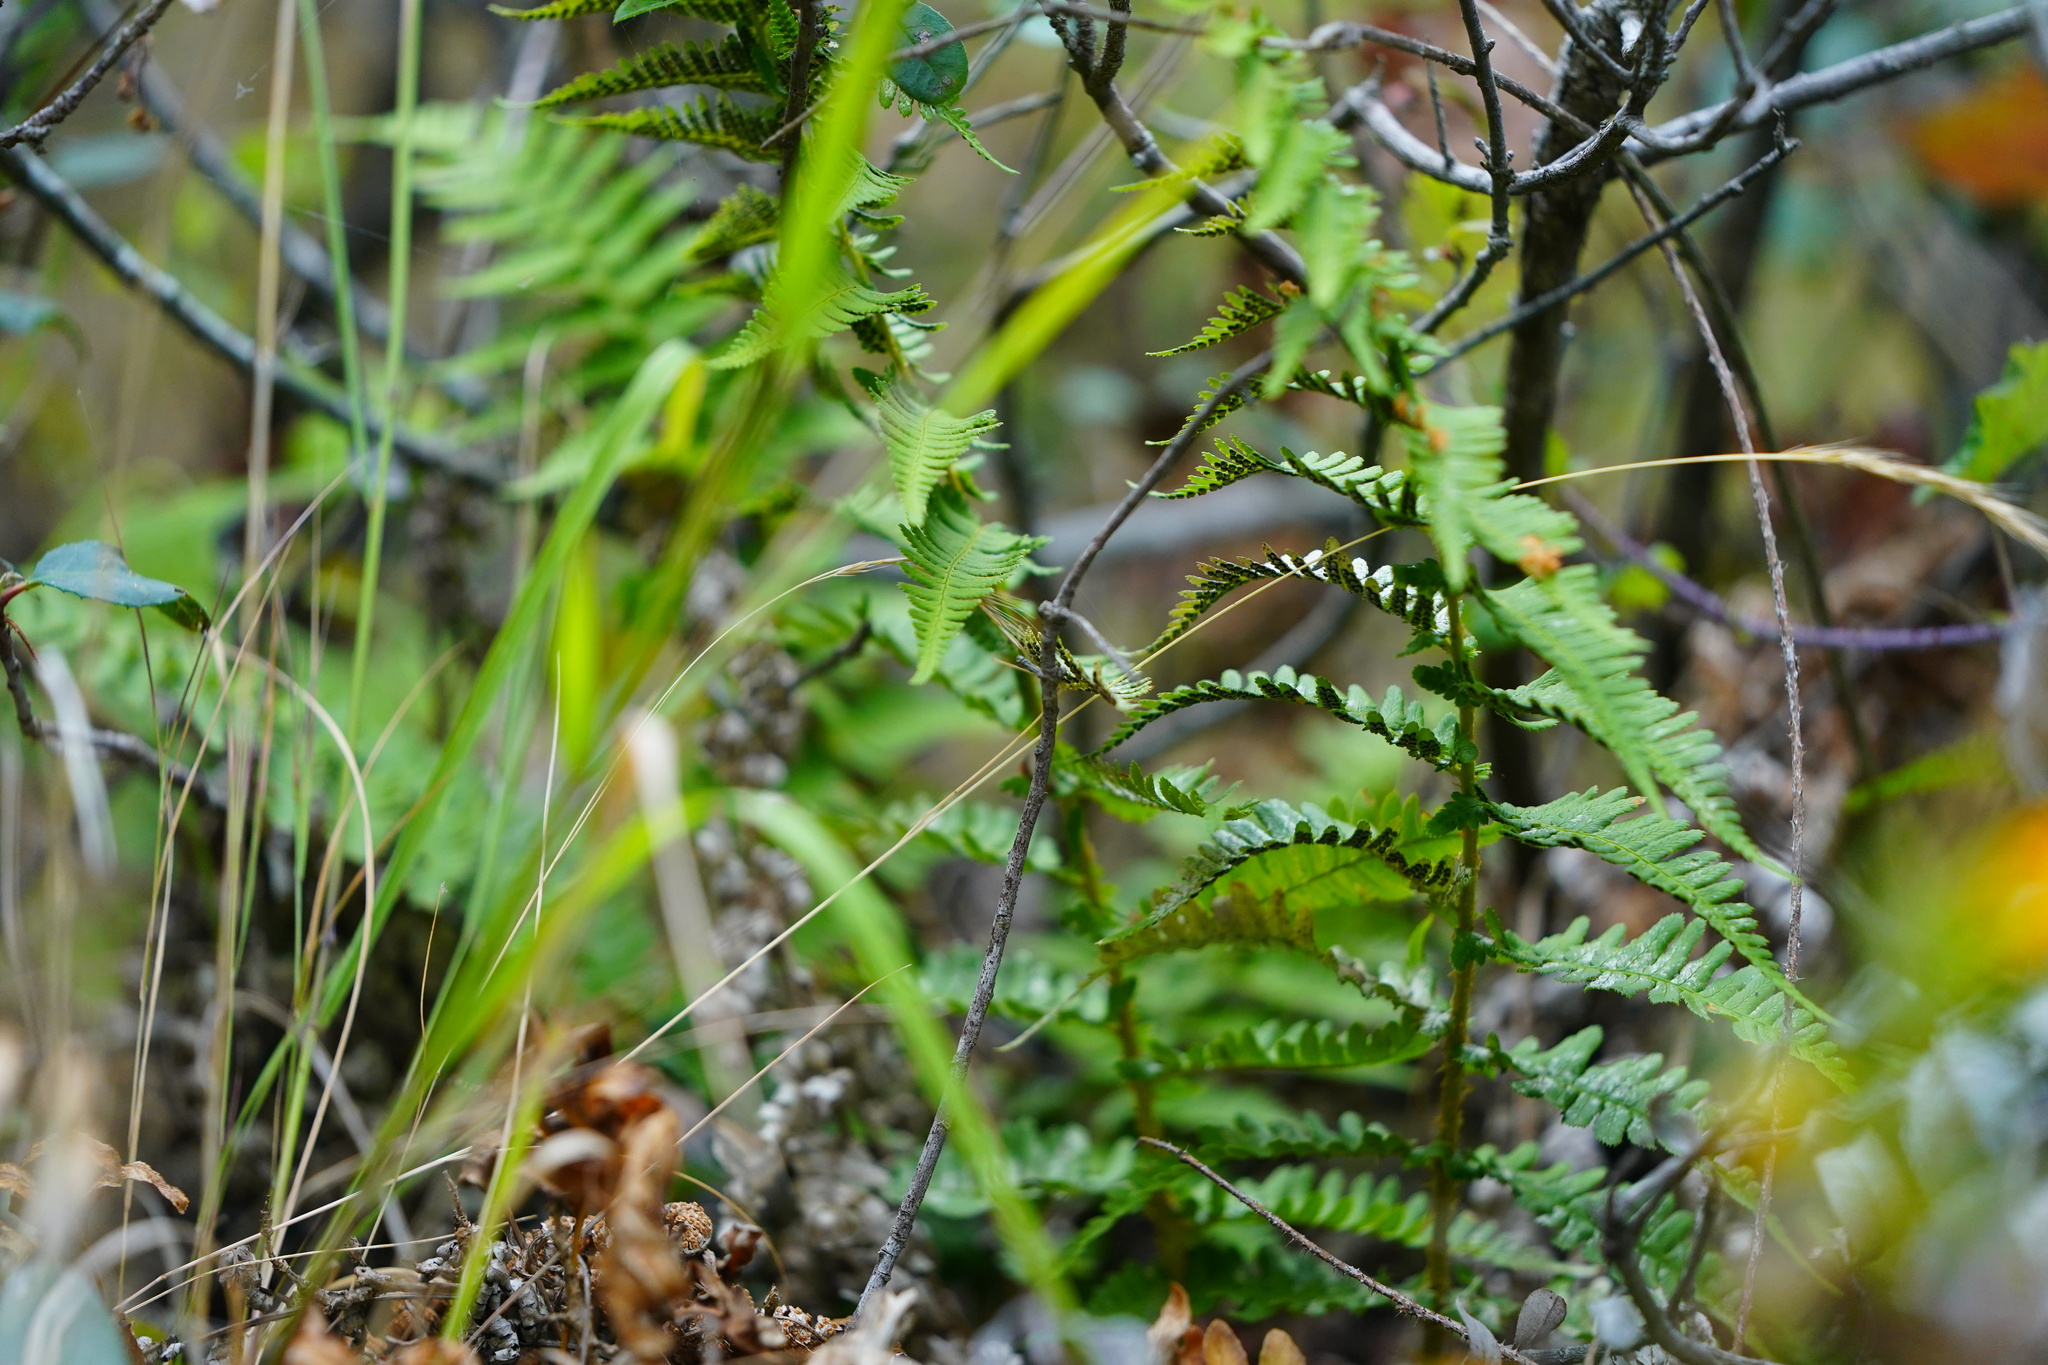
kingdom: Plantae
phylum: Tracheophyta
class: Polypodiopsida
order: Polypodiales
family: Dryopteridaceae
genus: Dryopteris
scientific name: Dryopteris arguta
